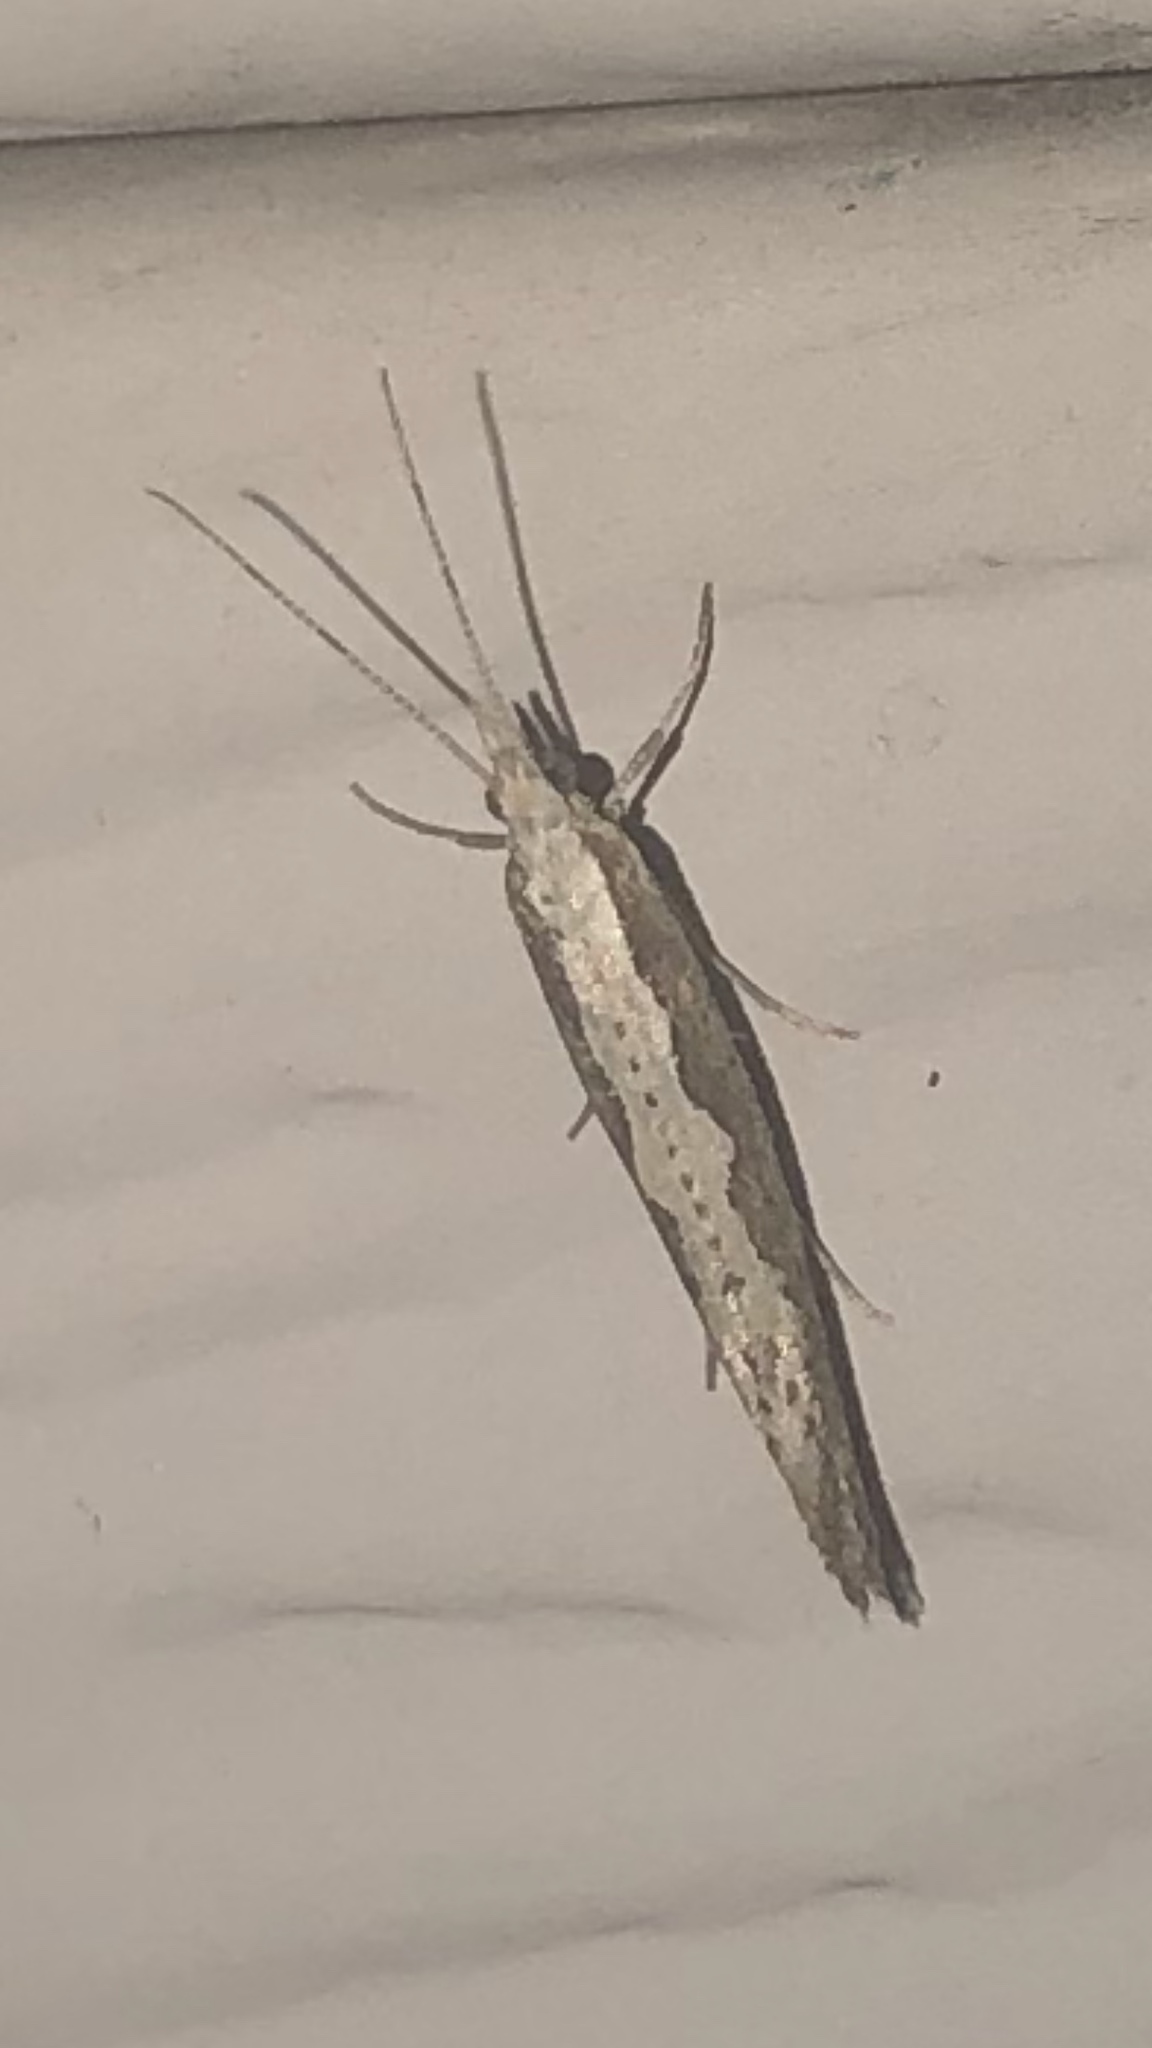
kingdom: Animalia
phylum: Arthropoda
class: Insecta
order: Lepidoptera
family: Plutellidae
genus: Plutella
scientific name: Plutella xylostella
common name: Diamond-back moth
